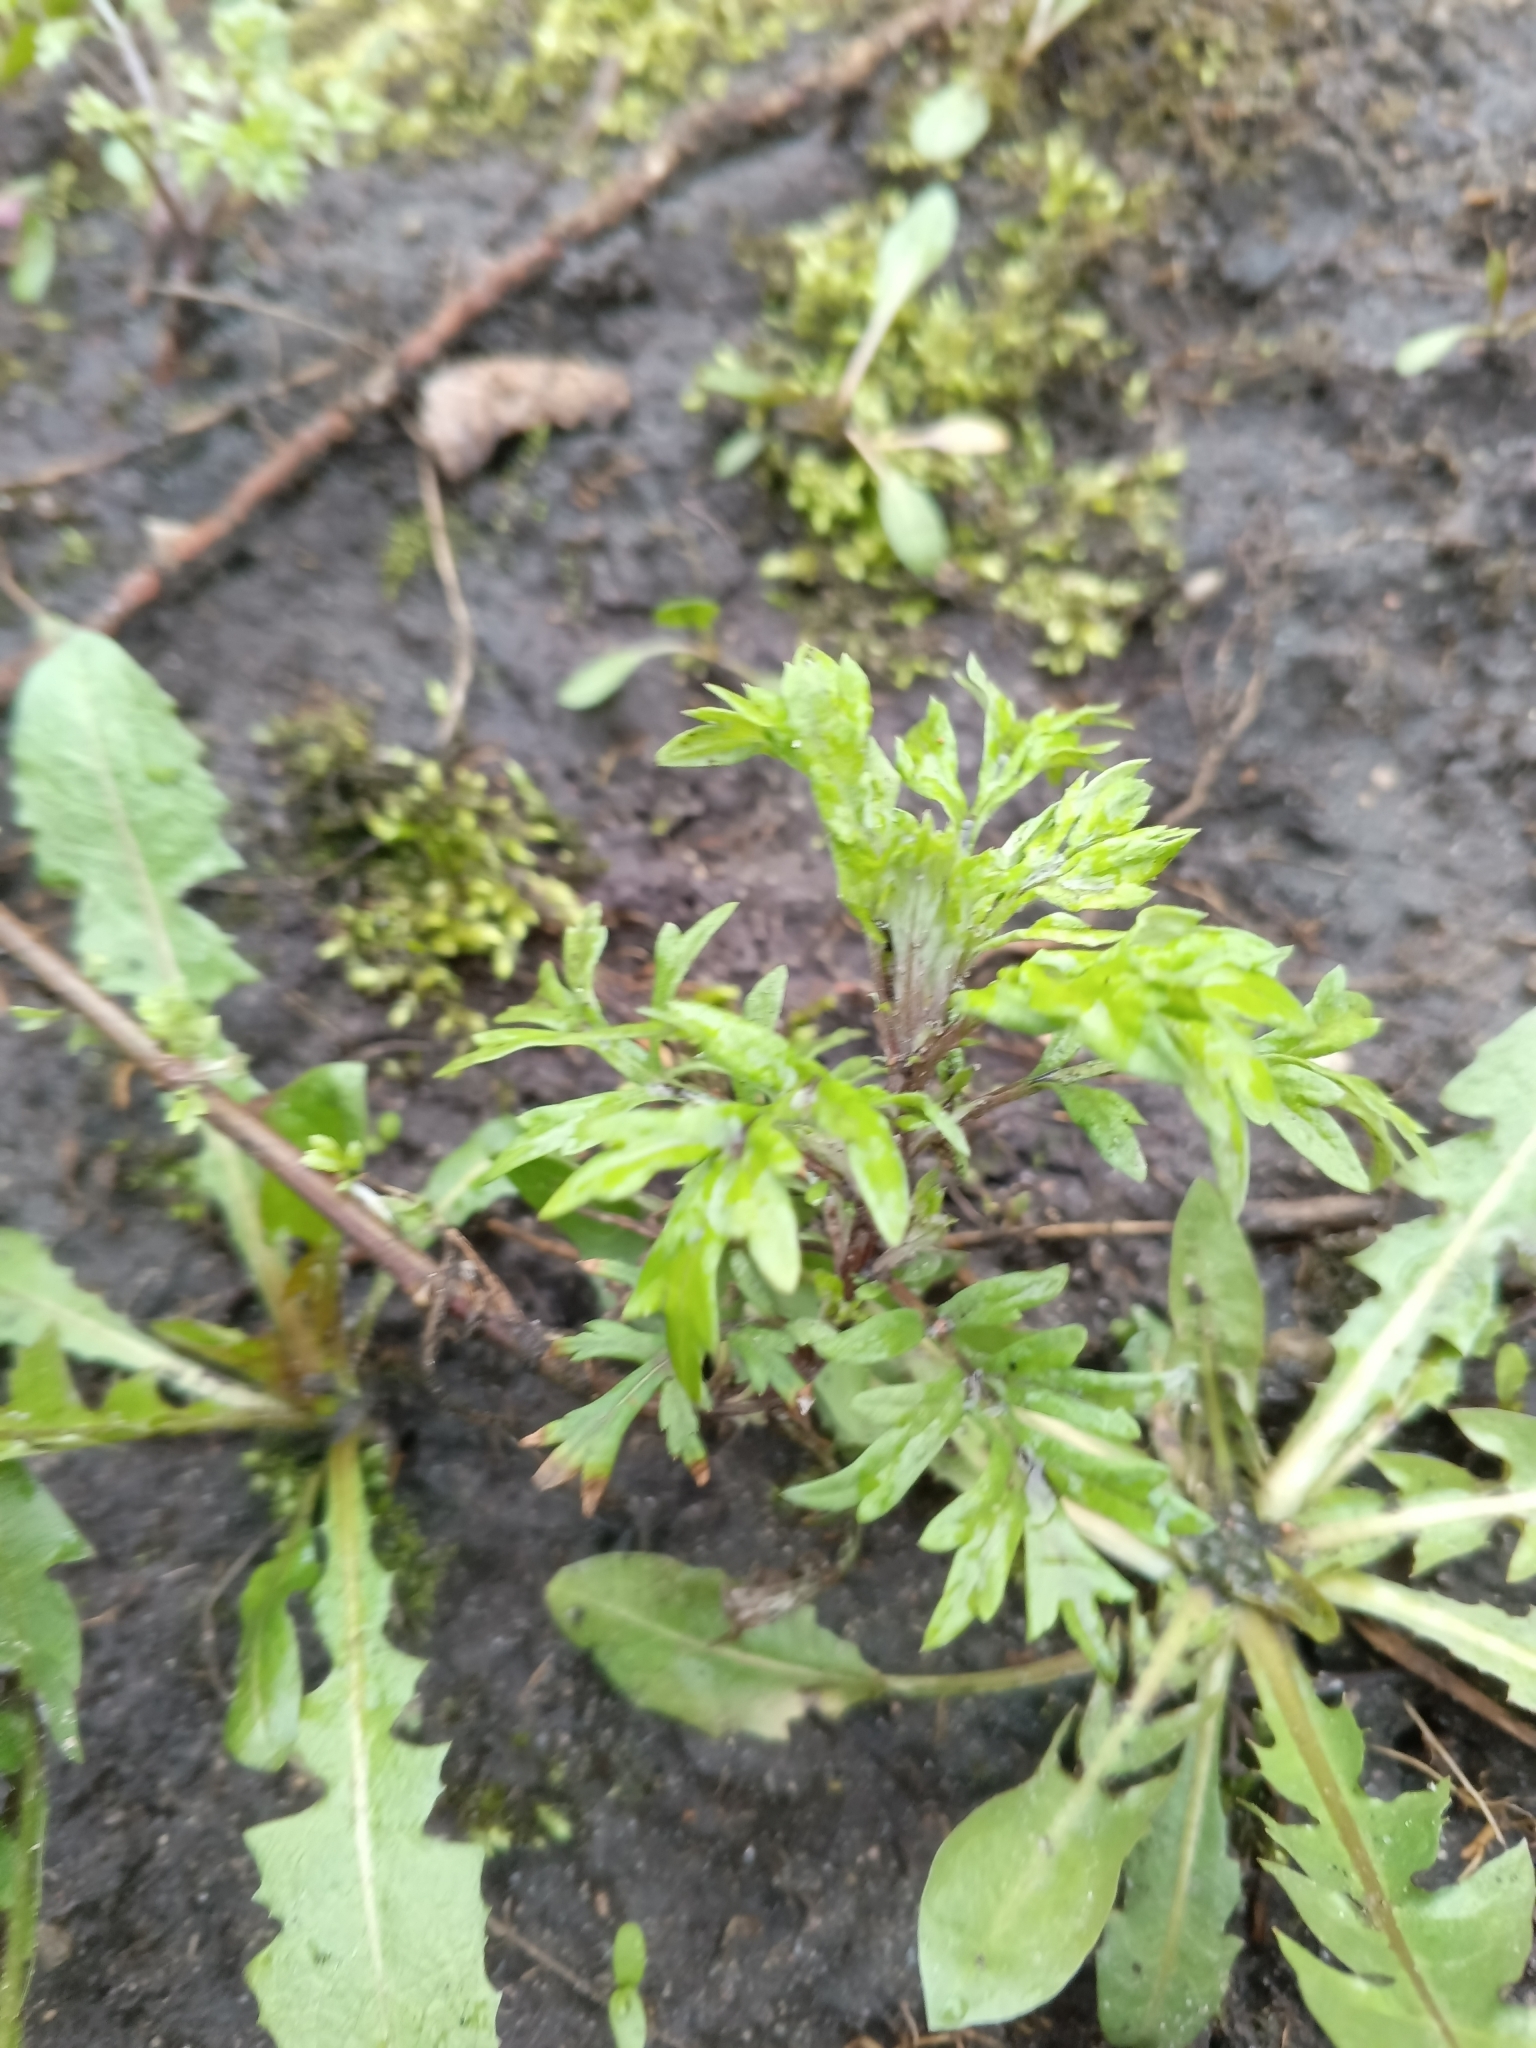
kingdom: Plantae
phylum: Tracheophyta
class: Magnoliopsida
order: Asterales
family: Asteraceae
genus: Artemisia
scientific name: Artemisia vulgaris
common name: Mugwort
